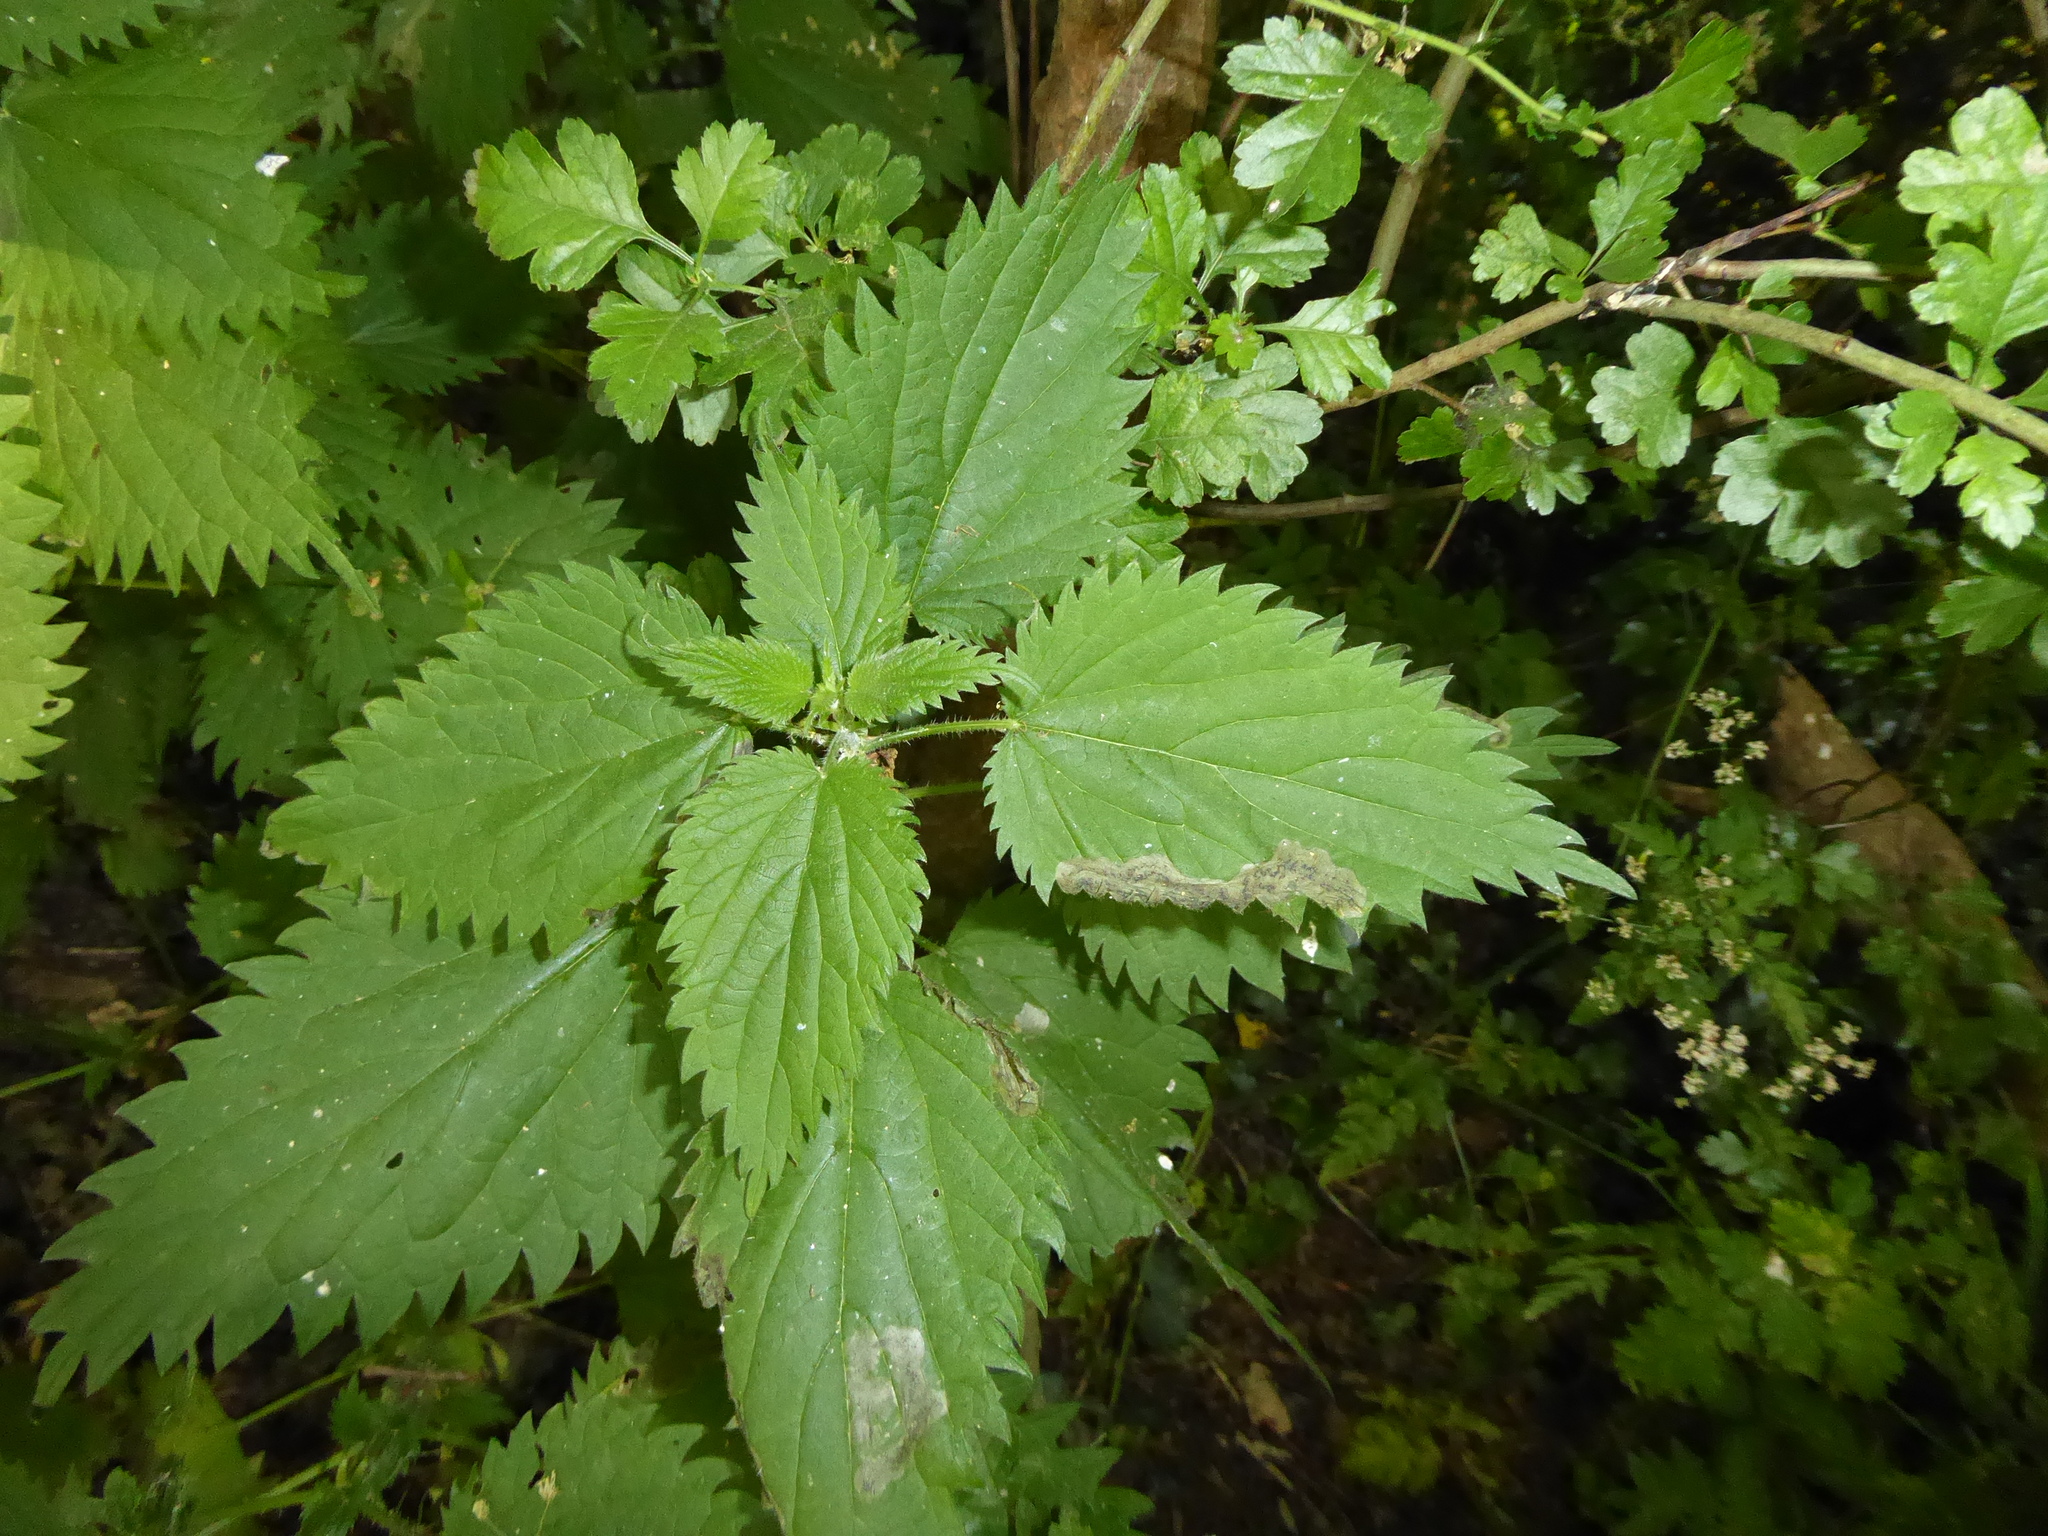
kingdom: Plantae
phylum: Tracheophyta
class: Magnoliopsida
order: Rosales
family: Urticaceae
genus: Urtica
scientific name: Urtica dioica
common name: Common nettle
